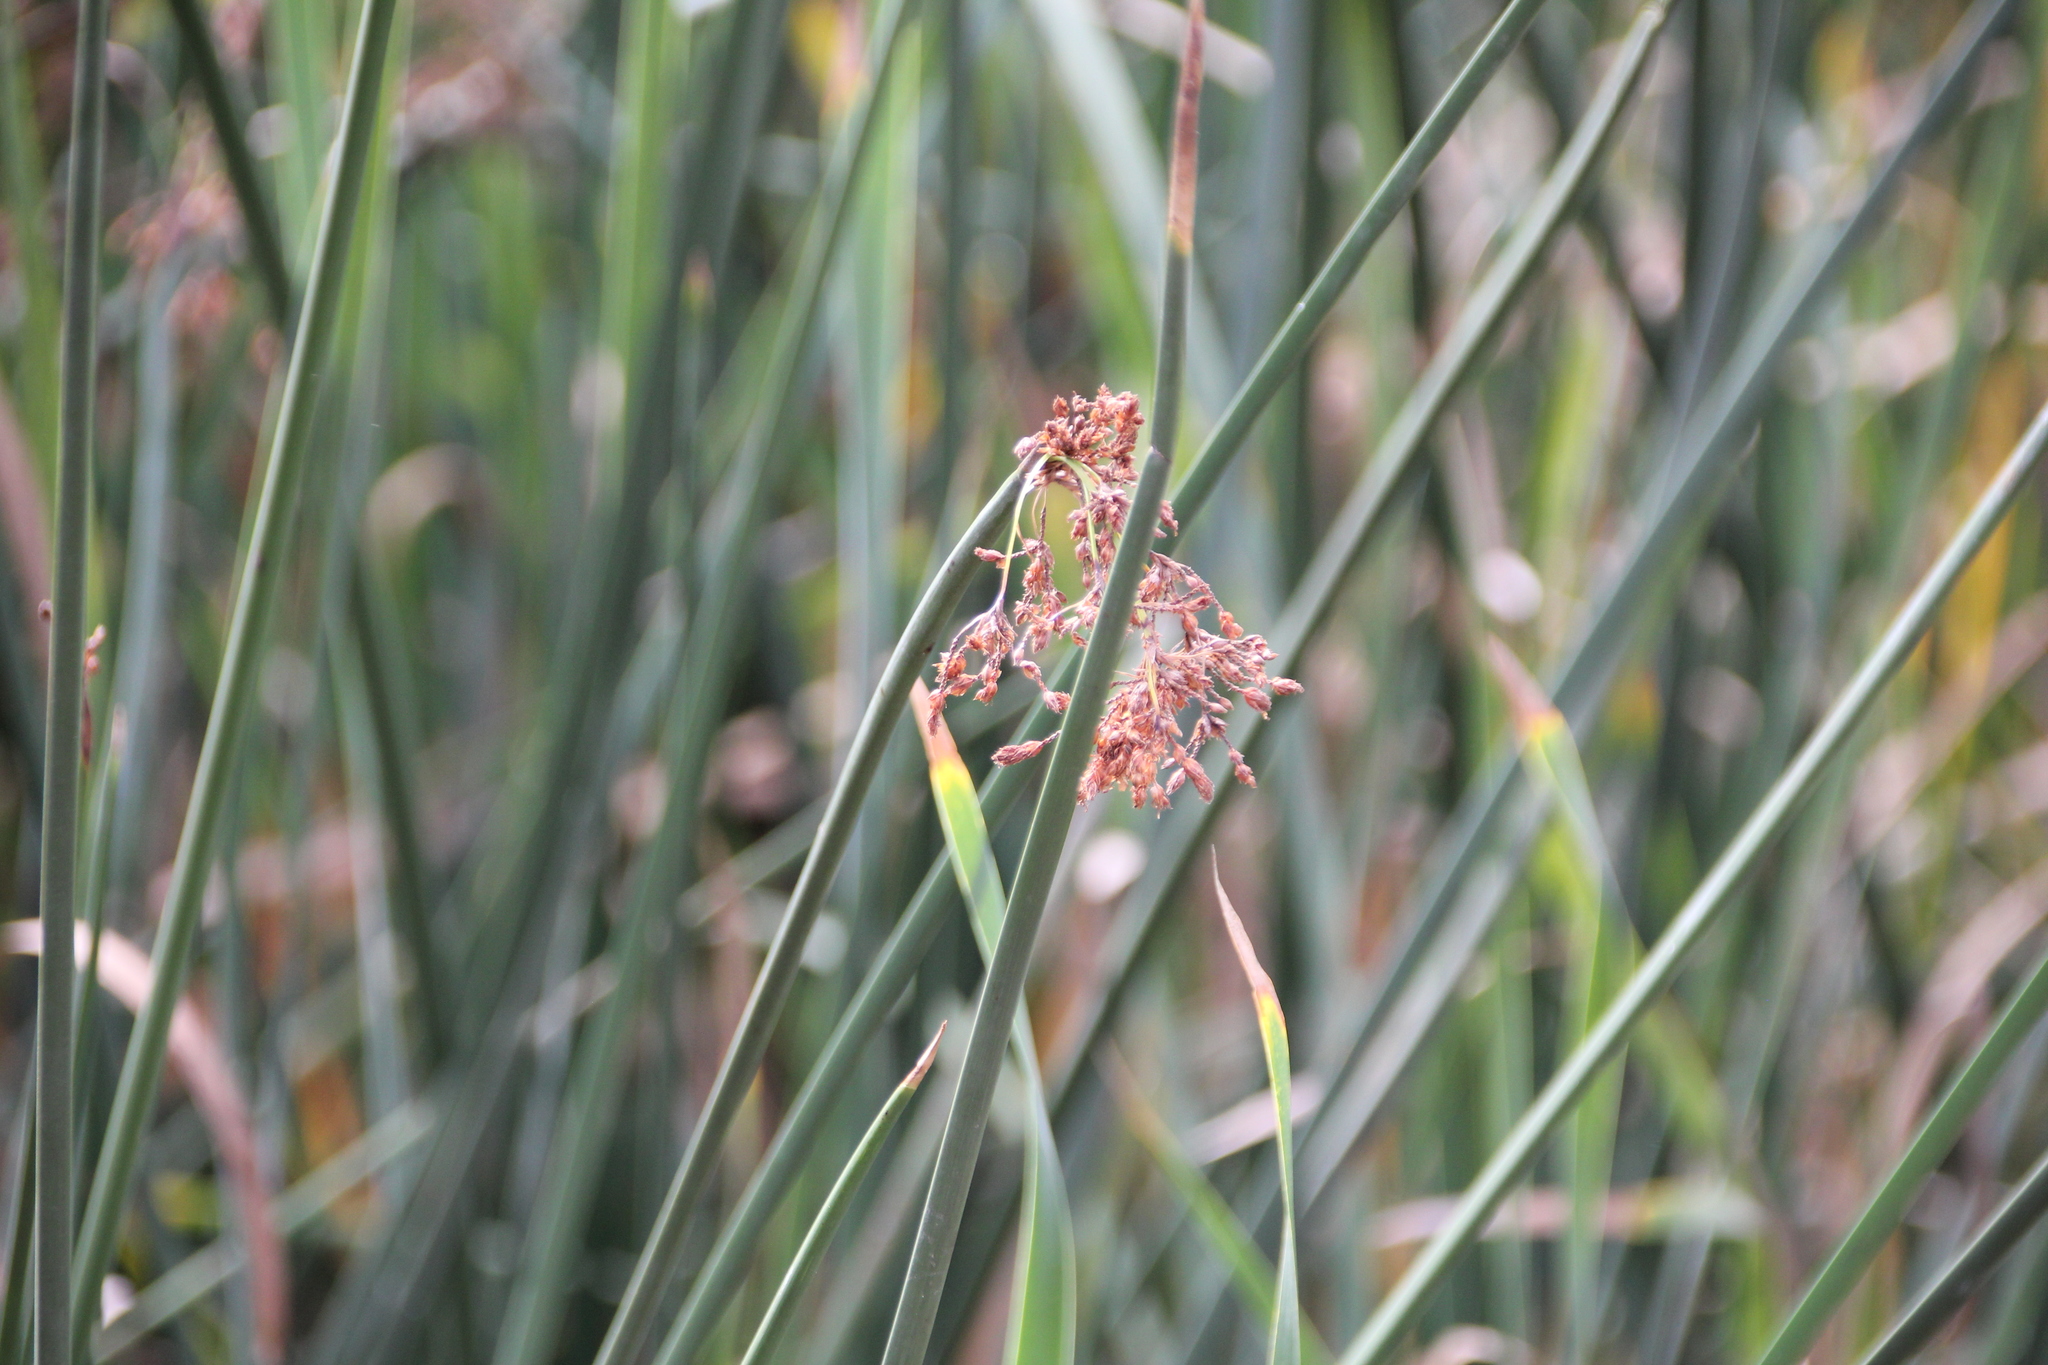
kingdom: Plantae
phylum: Tracheophyta
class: Liliopsida
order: Poales
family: Cyperaceae
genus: Schoenoplectus
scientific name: Schoenoplectus californicus
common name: California bulrush
